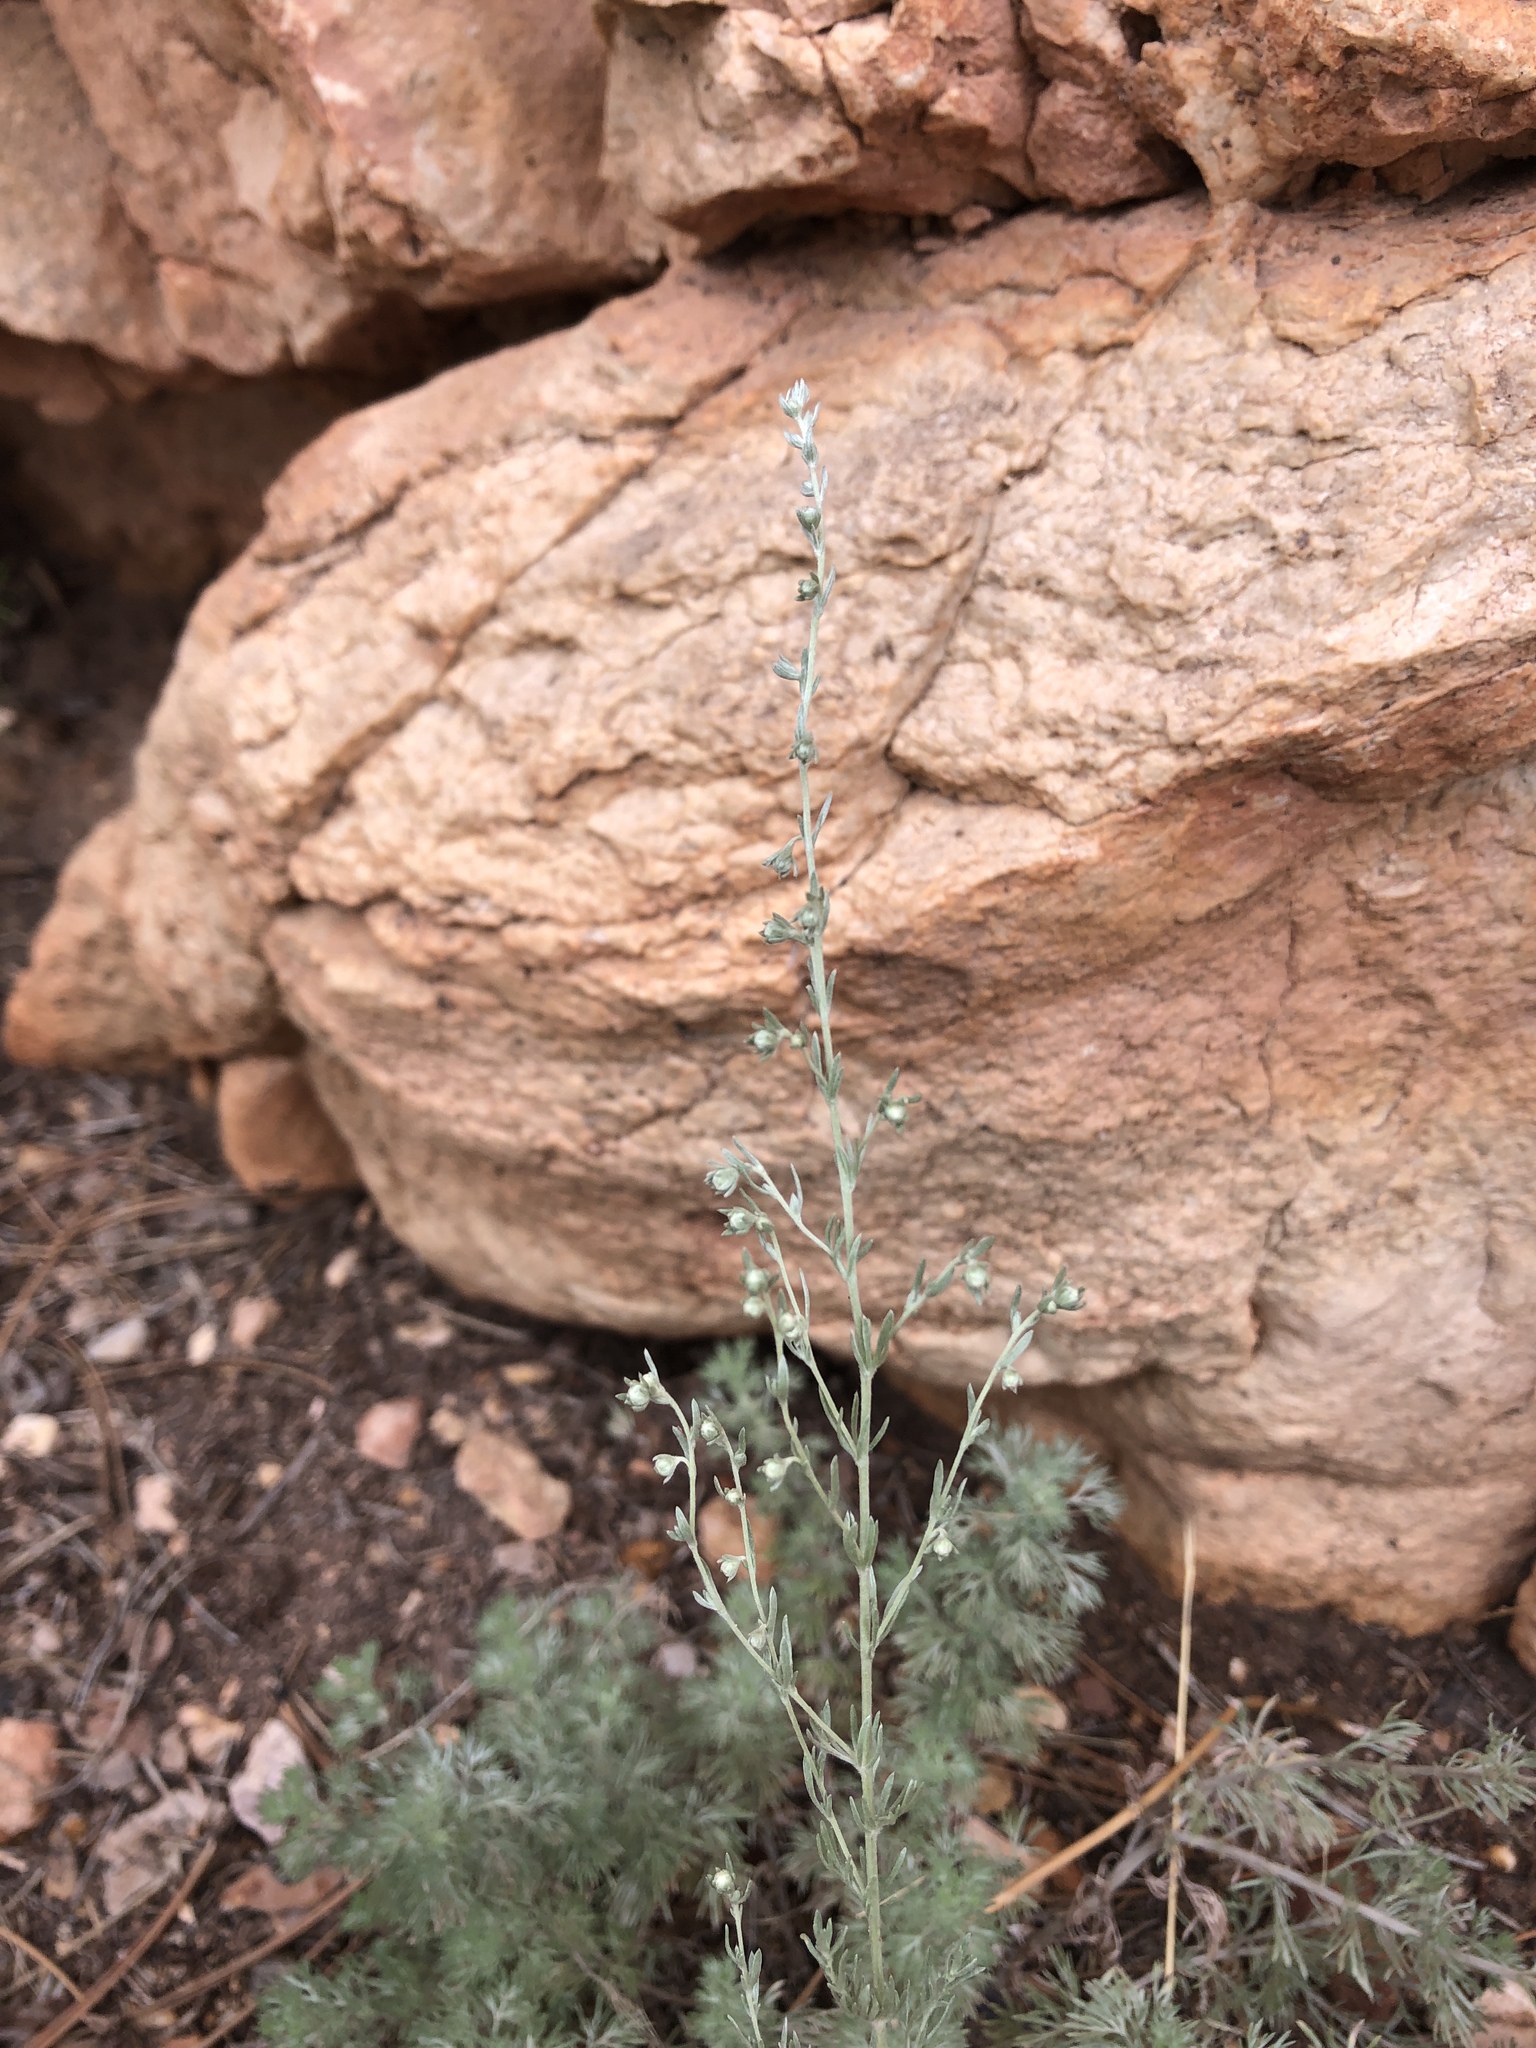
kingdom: Plantae
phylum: Tracheophyta
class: Magnoliopsida
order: Asterales
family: Asteraceae
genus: Artemisia
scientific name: Artemisia frigida
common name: Prairie sagewort
